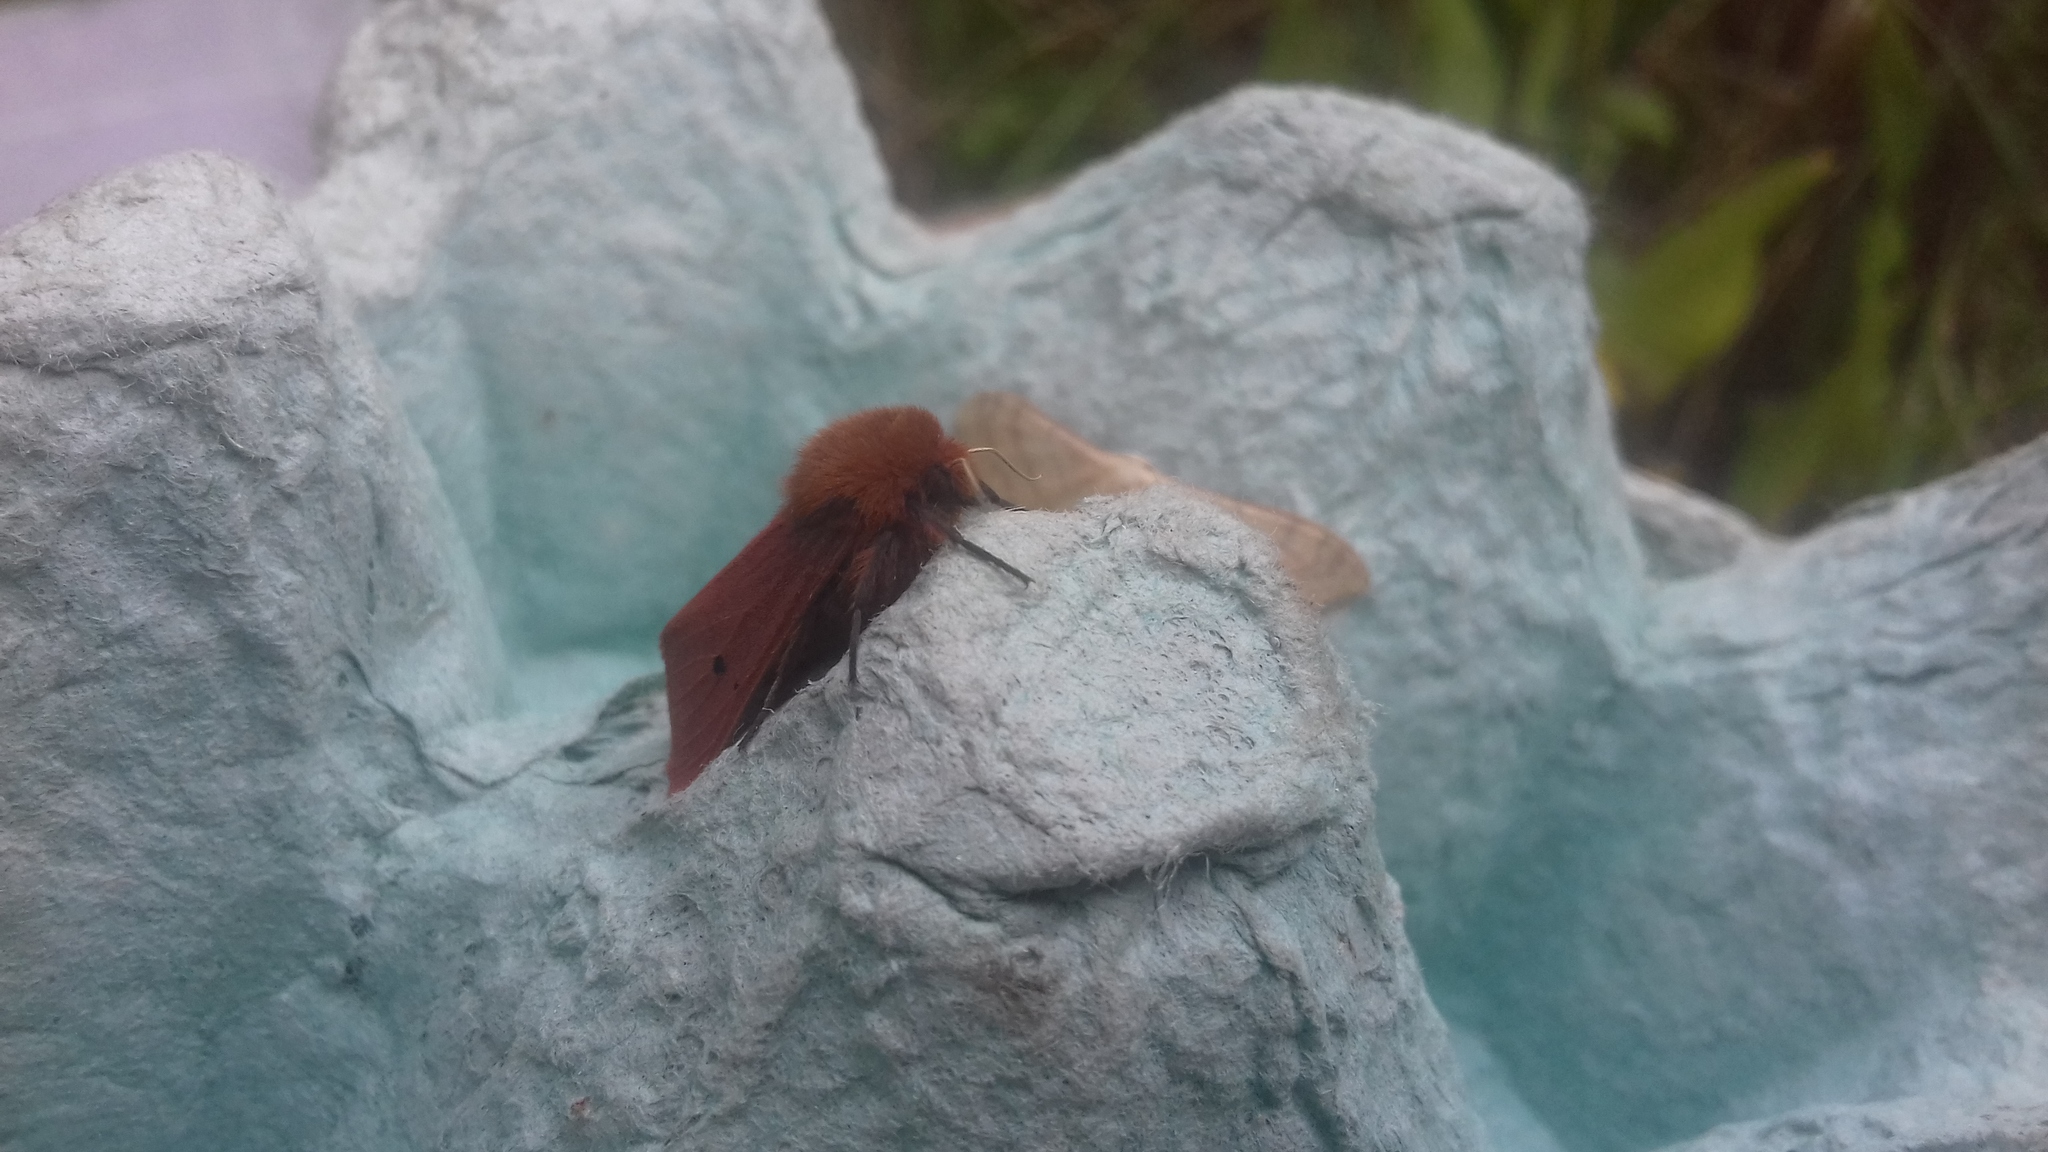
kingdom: Animalia
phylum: Arthropoda
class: Insecta
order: Lepidoptera
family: Erebidae
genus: Phragmatobia
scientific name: Phragmatobia fuliginosa
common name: Ruby tiger
